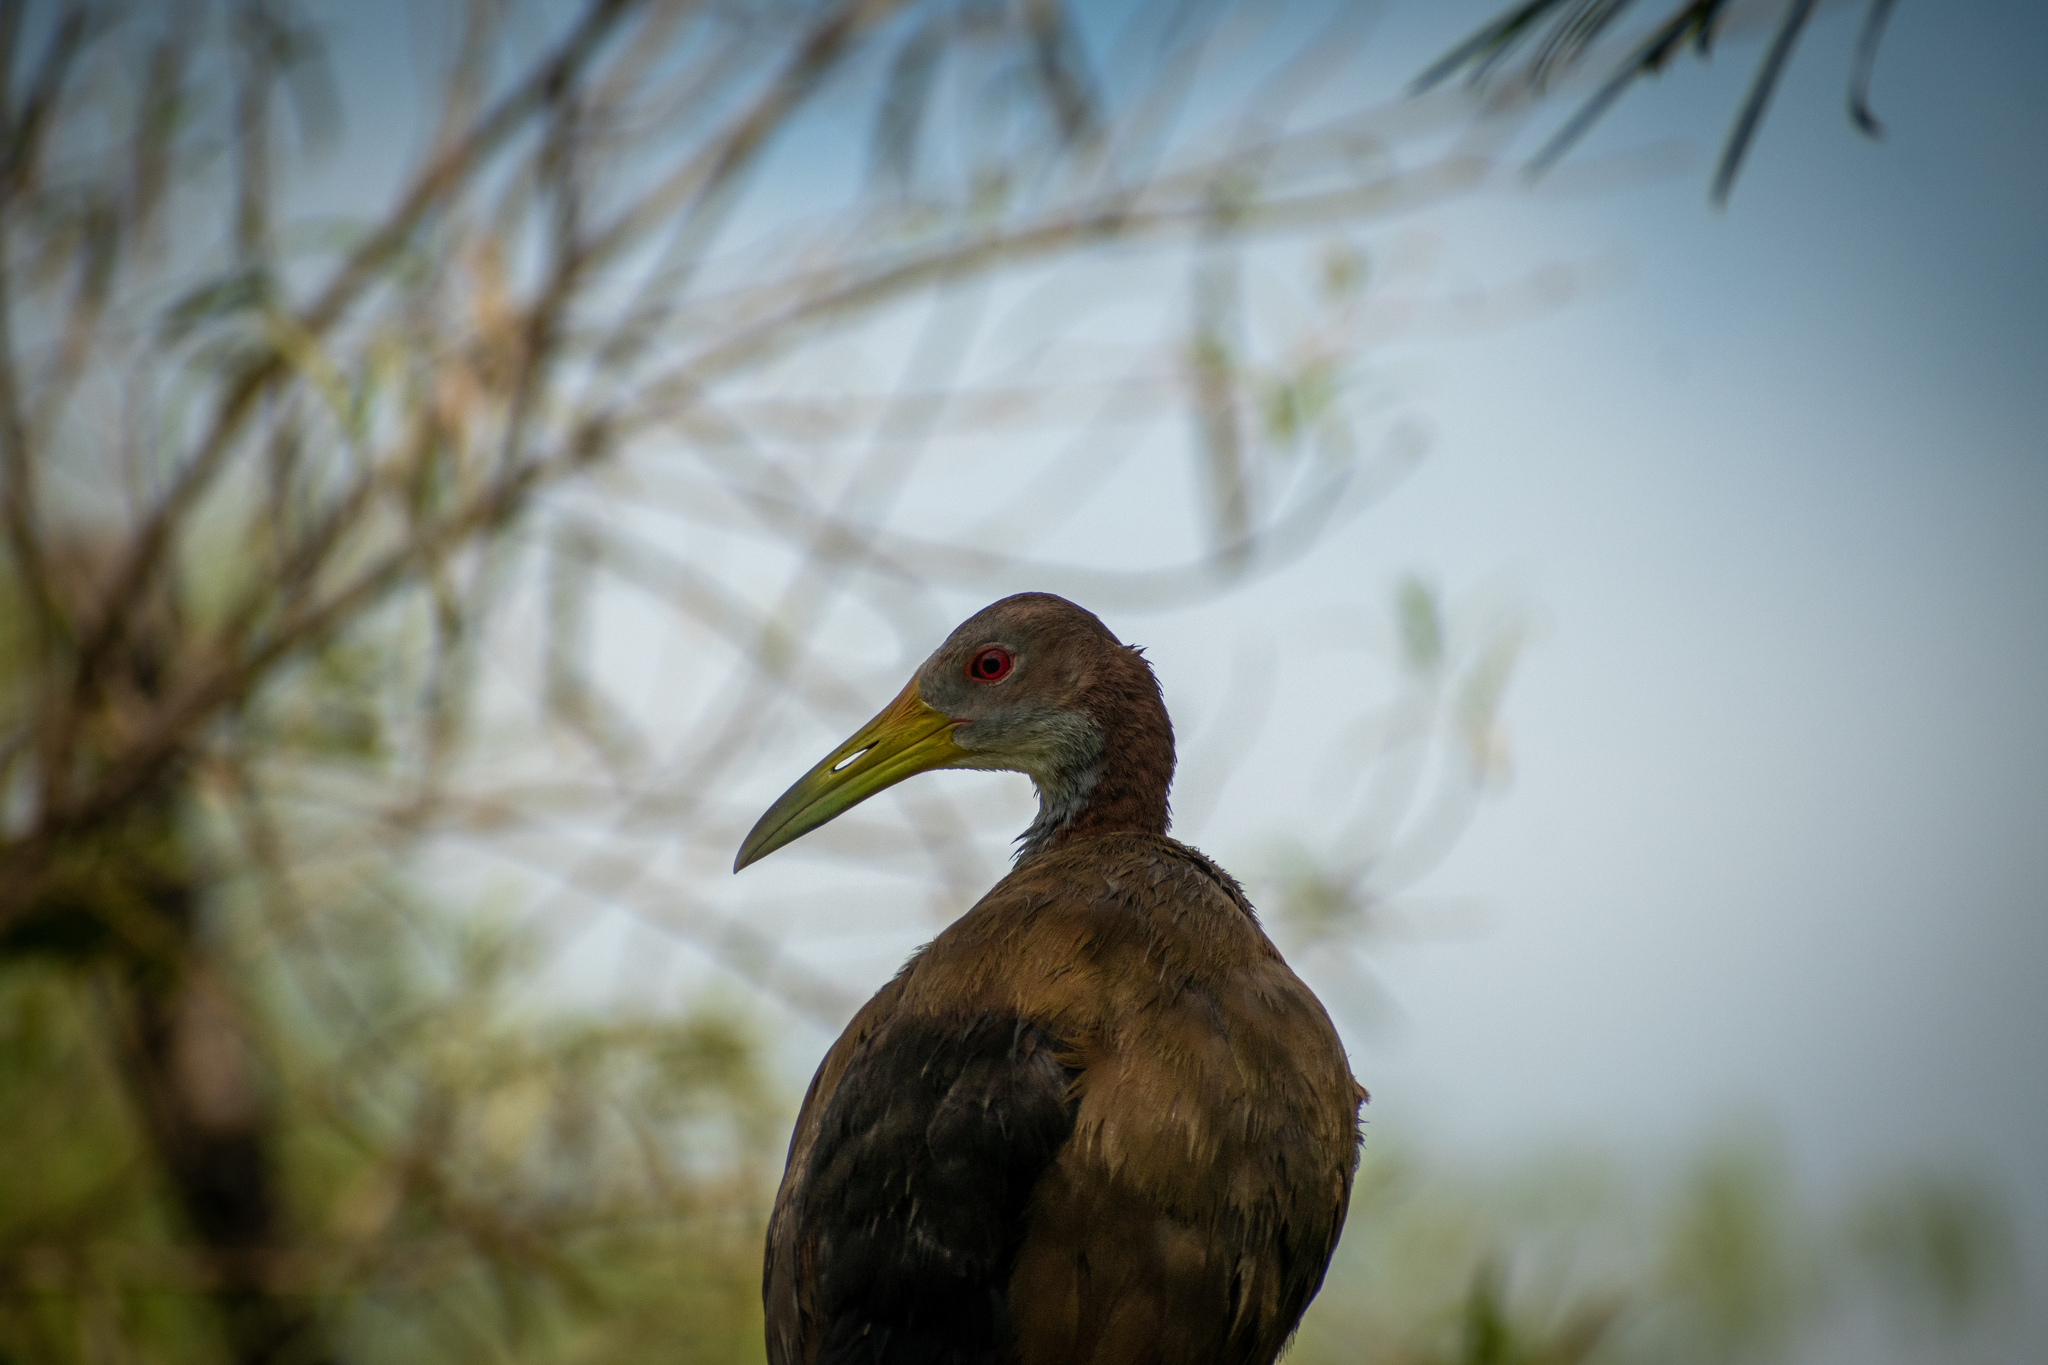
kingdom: Animalia
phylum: Chordata
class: Aves
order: Gruiformes
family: Rallidae
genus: Aramides
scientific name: Aramides ypecaha
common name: Giant wood rail
